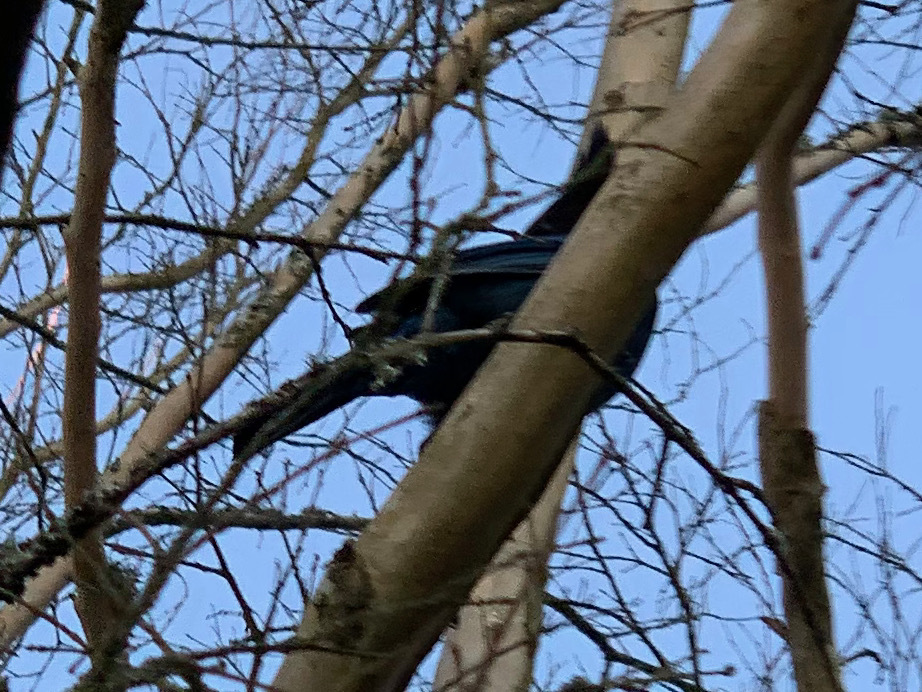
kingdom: Animalia
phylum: Chordata
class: Aves
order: Passeriformes
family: Corvidae
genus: Cyanocitta
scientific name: Cyanocitta stelleri
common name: Steller's jay
